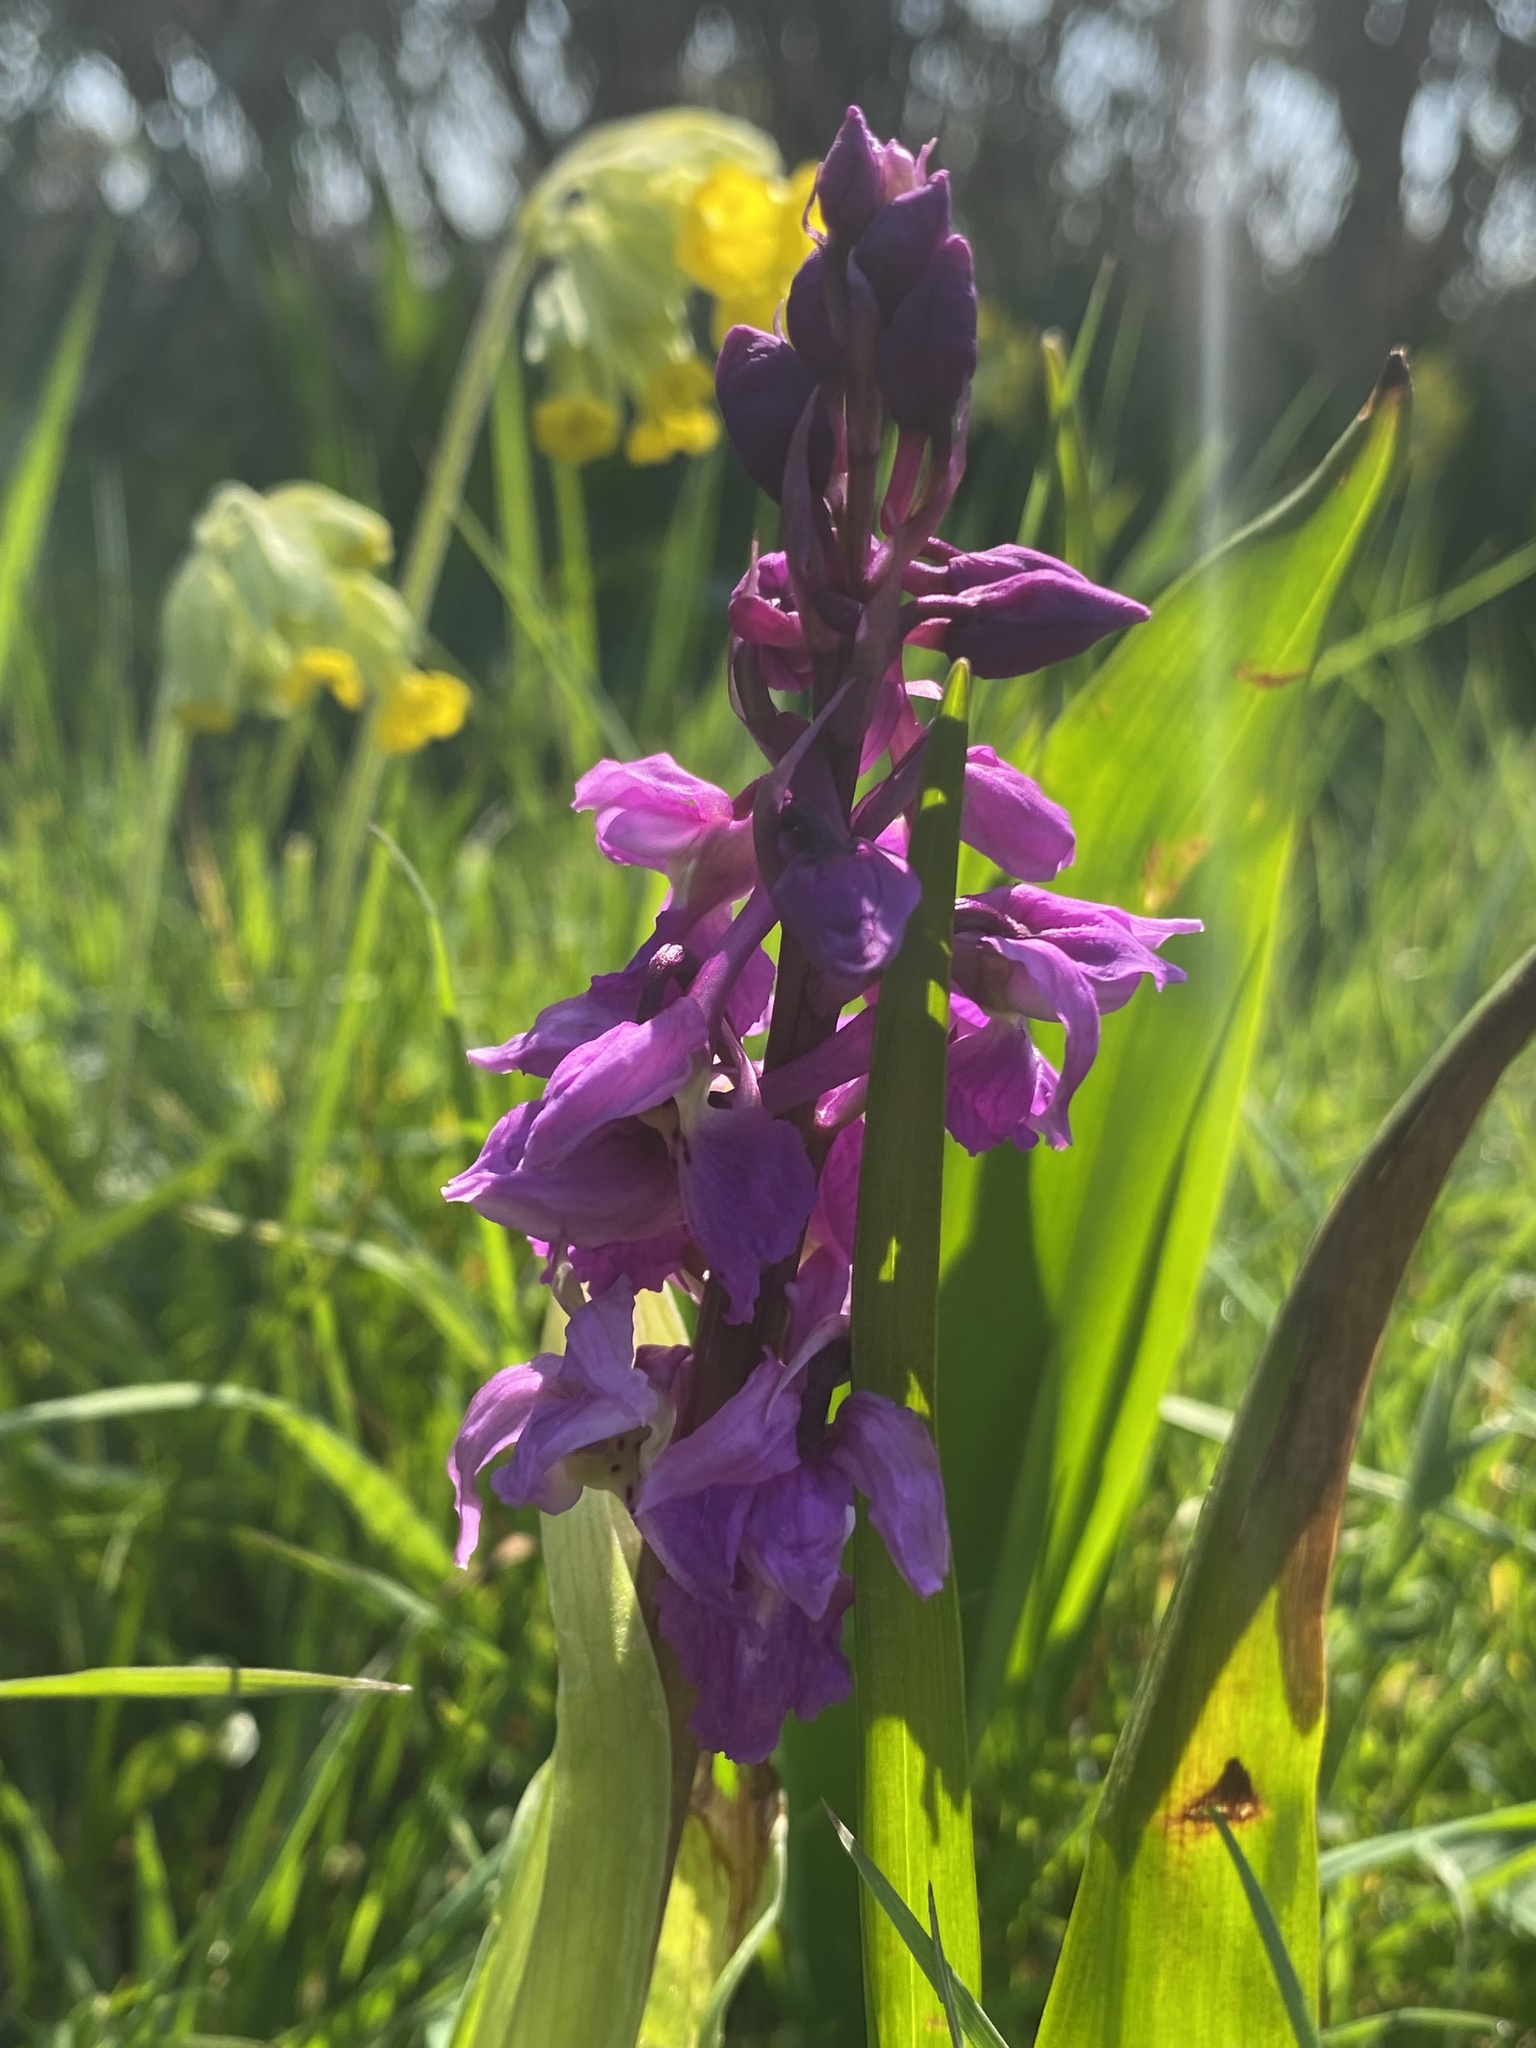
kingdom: Plantae
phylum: Tracheophyta
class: Liliopsida
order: Asparagales
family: Orchidaceae
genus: Orchis
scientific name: Orchis mascula
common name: Early-purple orchid
